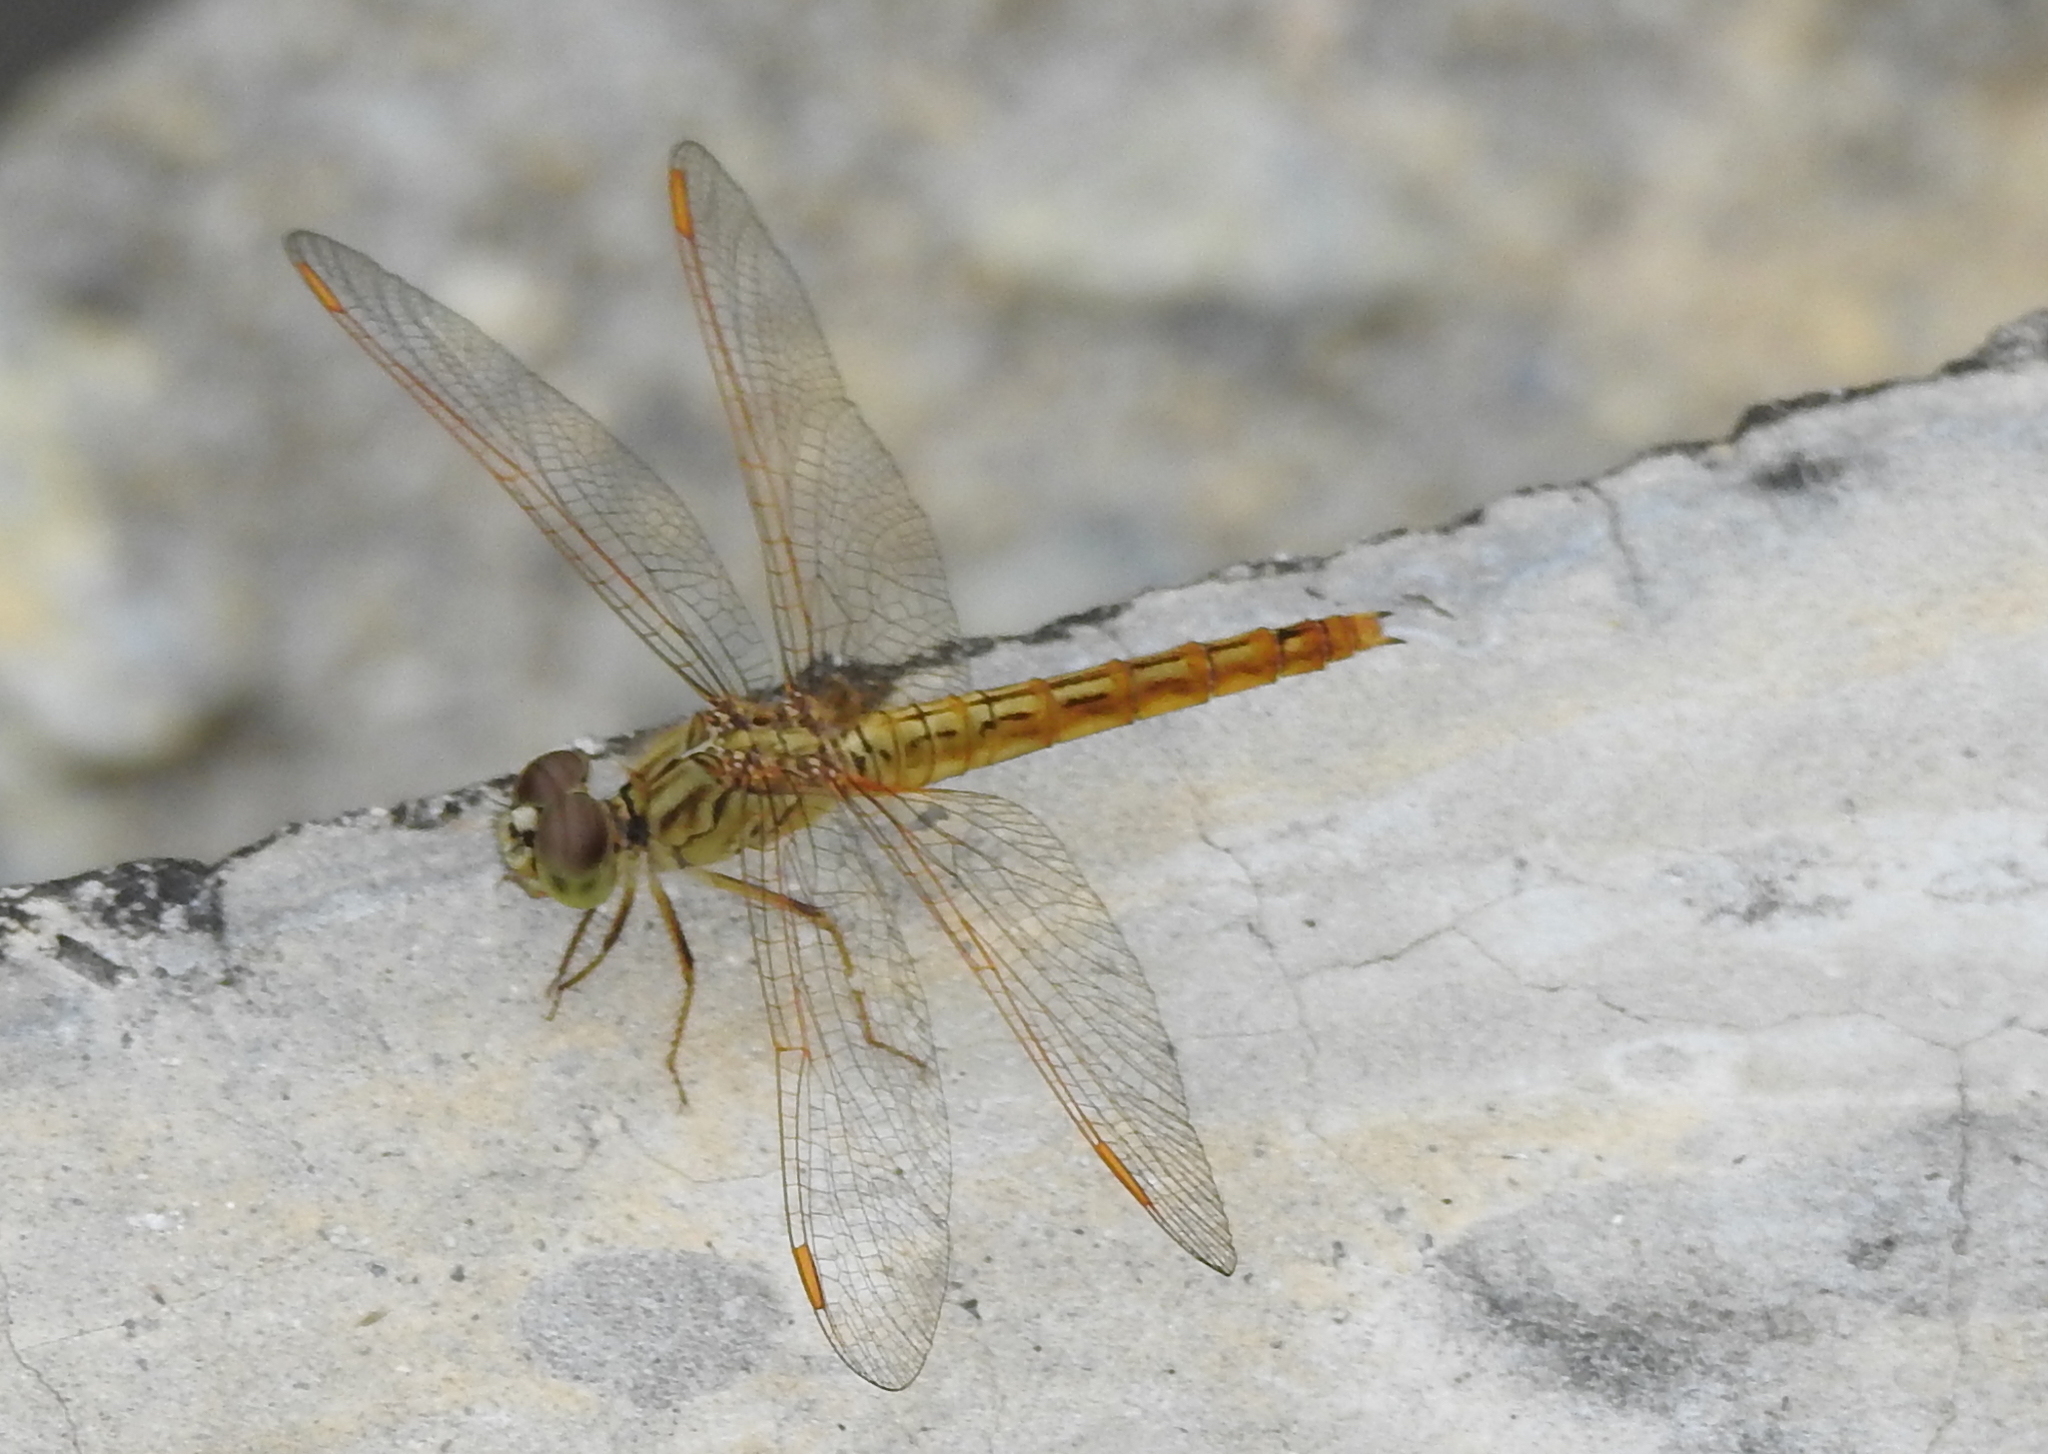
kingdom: Animalia
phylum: Arthropoda
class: Insecta
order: Odonata
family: Libellulidae
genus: Brachythemis
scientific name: Brachythemis contaminata
